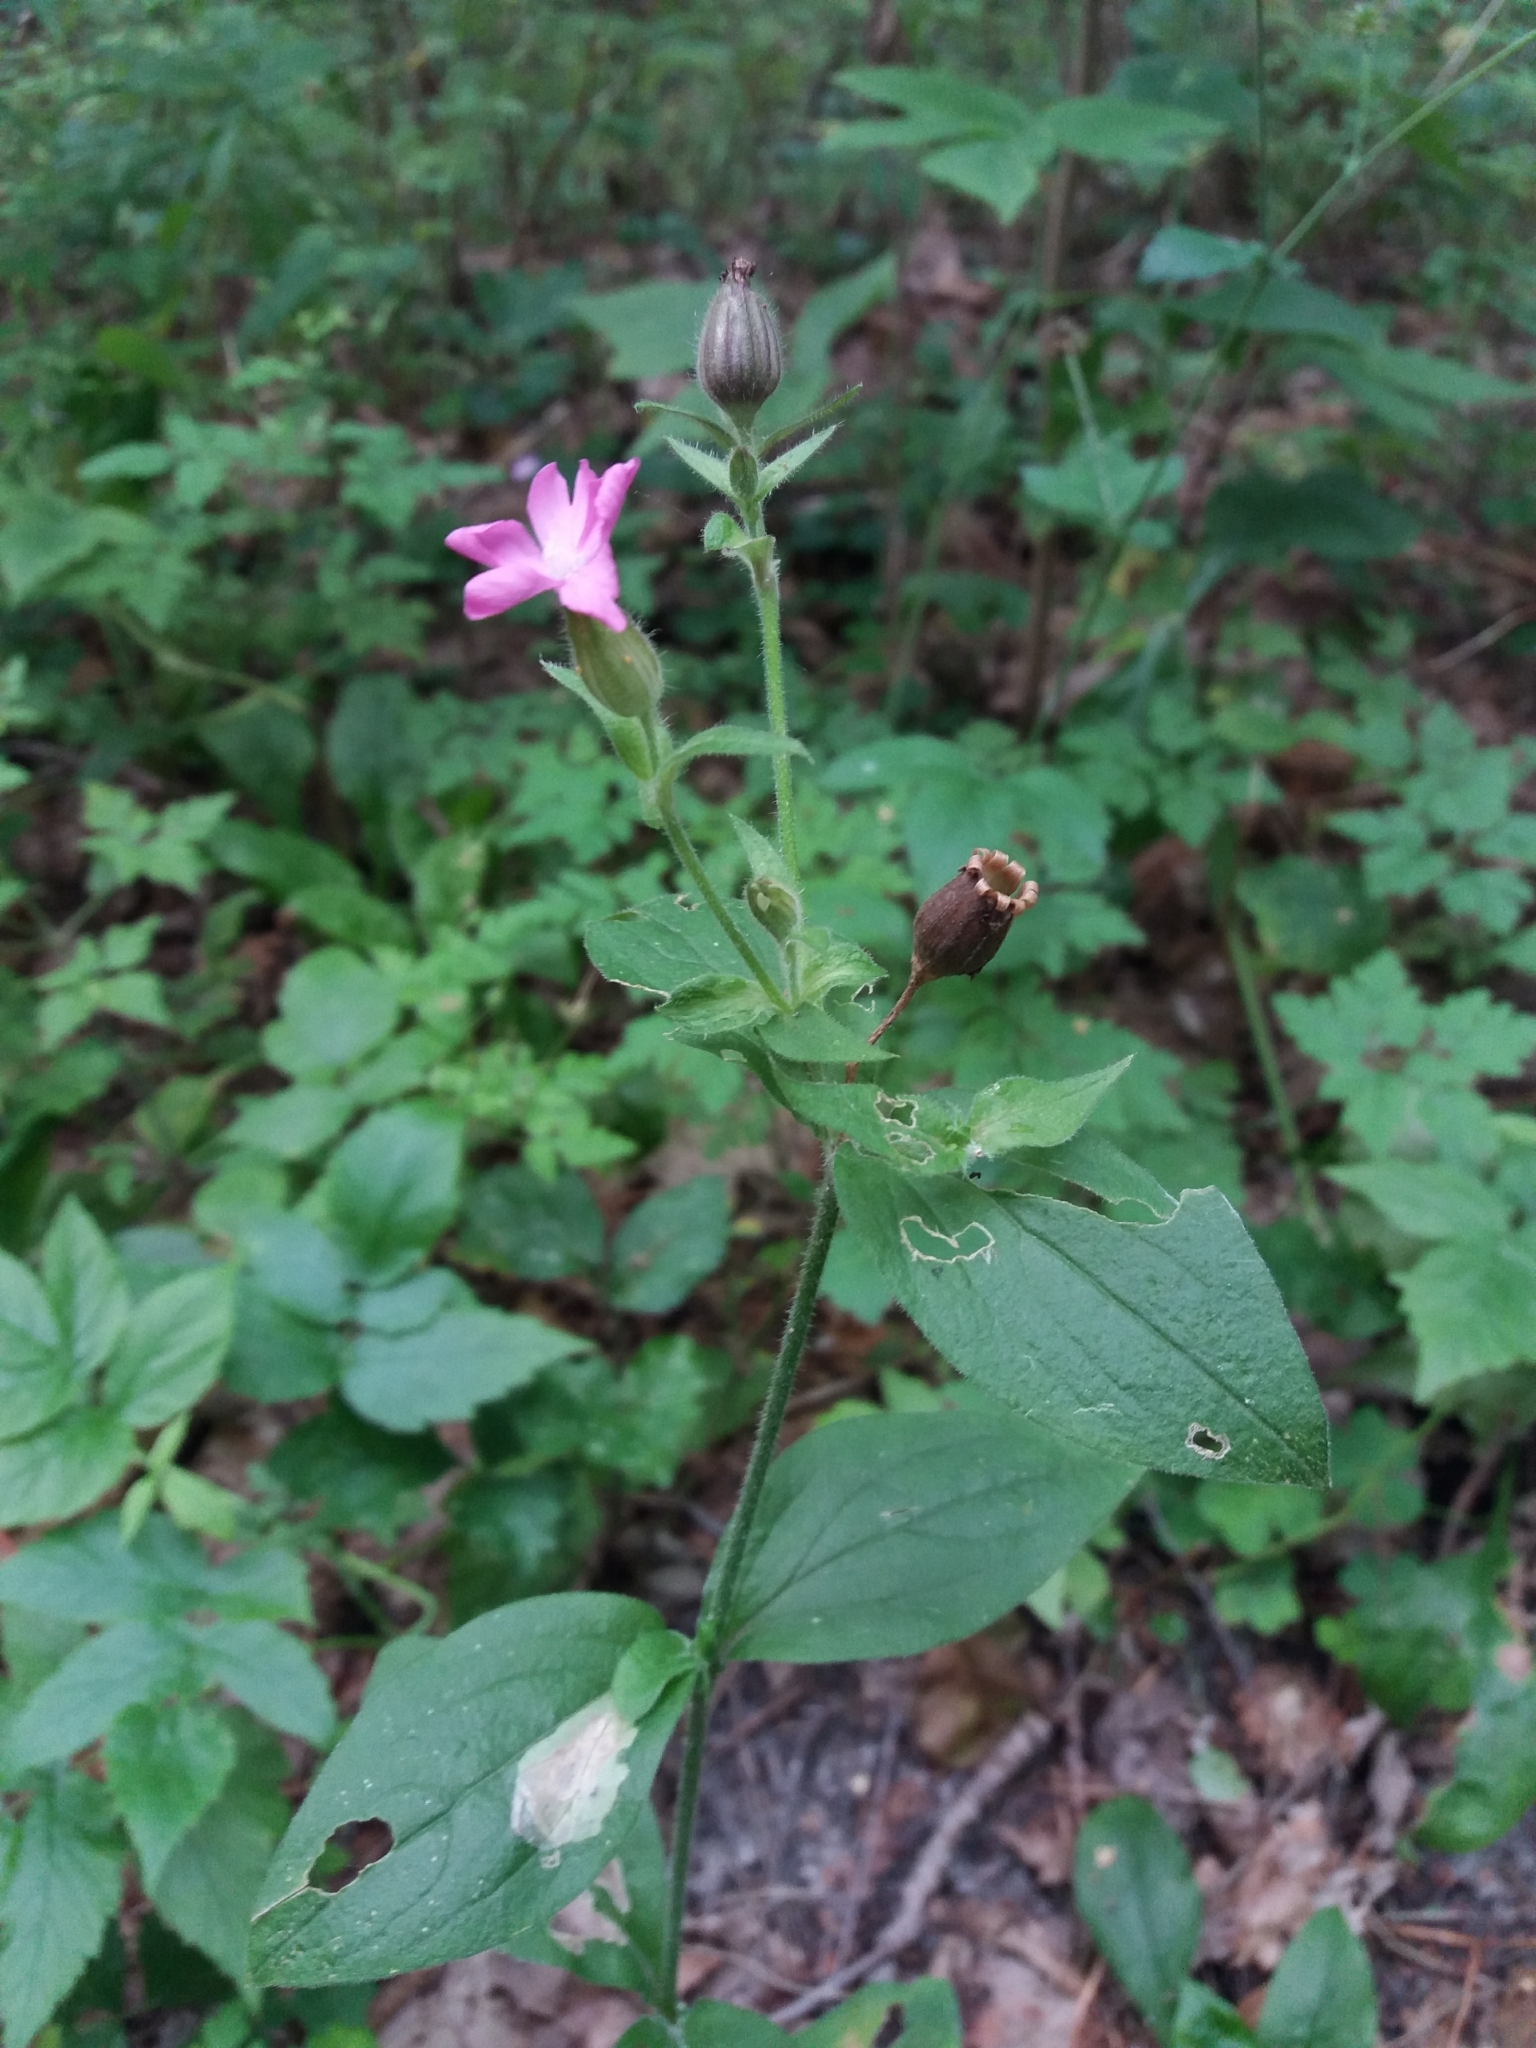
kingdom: Plantae
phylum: Tracheophyta
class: Magnoliopsida
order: Caryophyllales
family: Caryophyllaceae
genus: Silene
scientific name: Silene dioica
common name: Red campion
